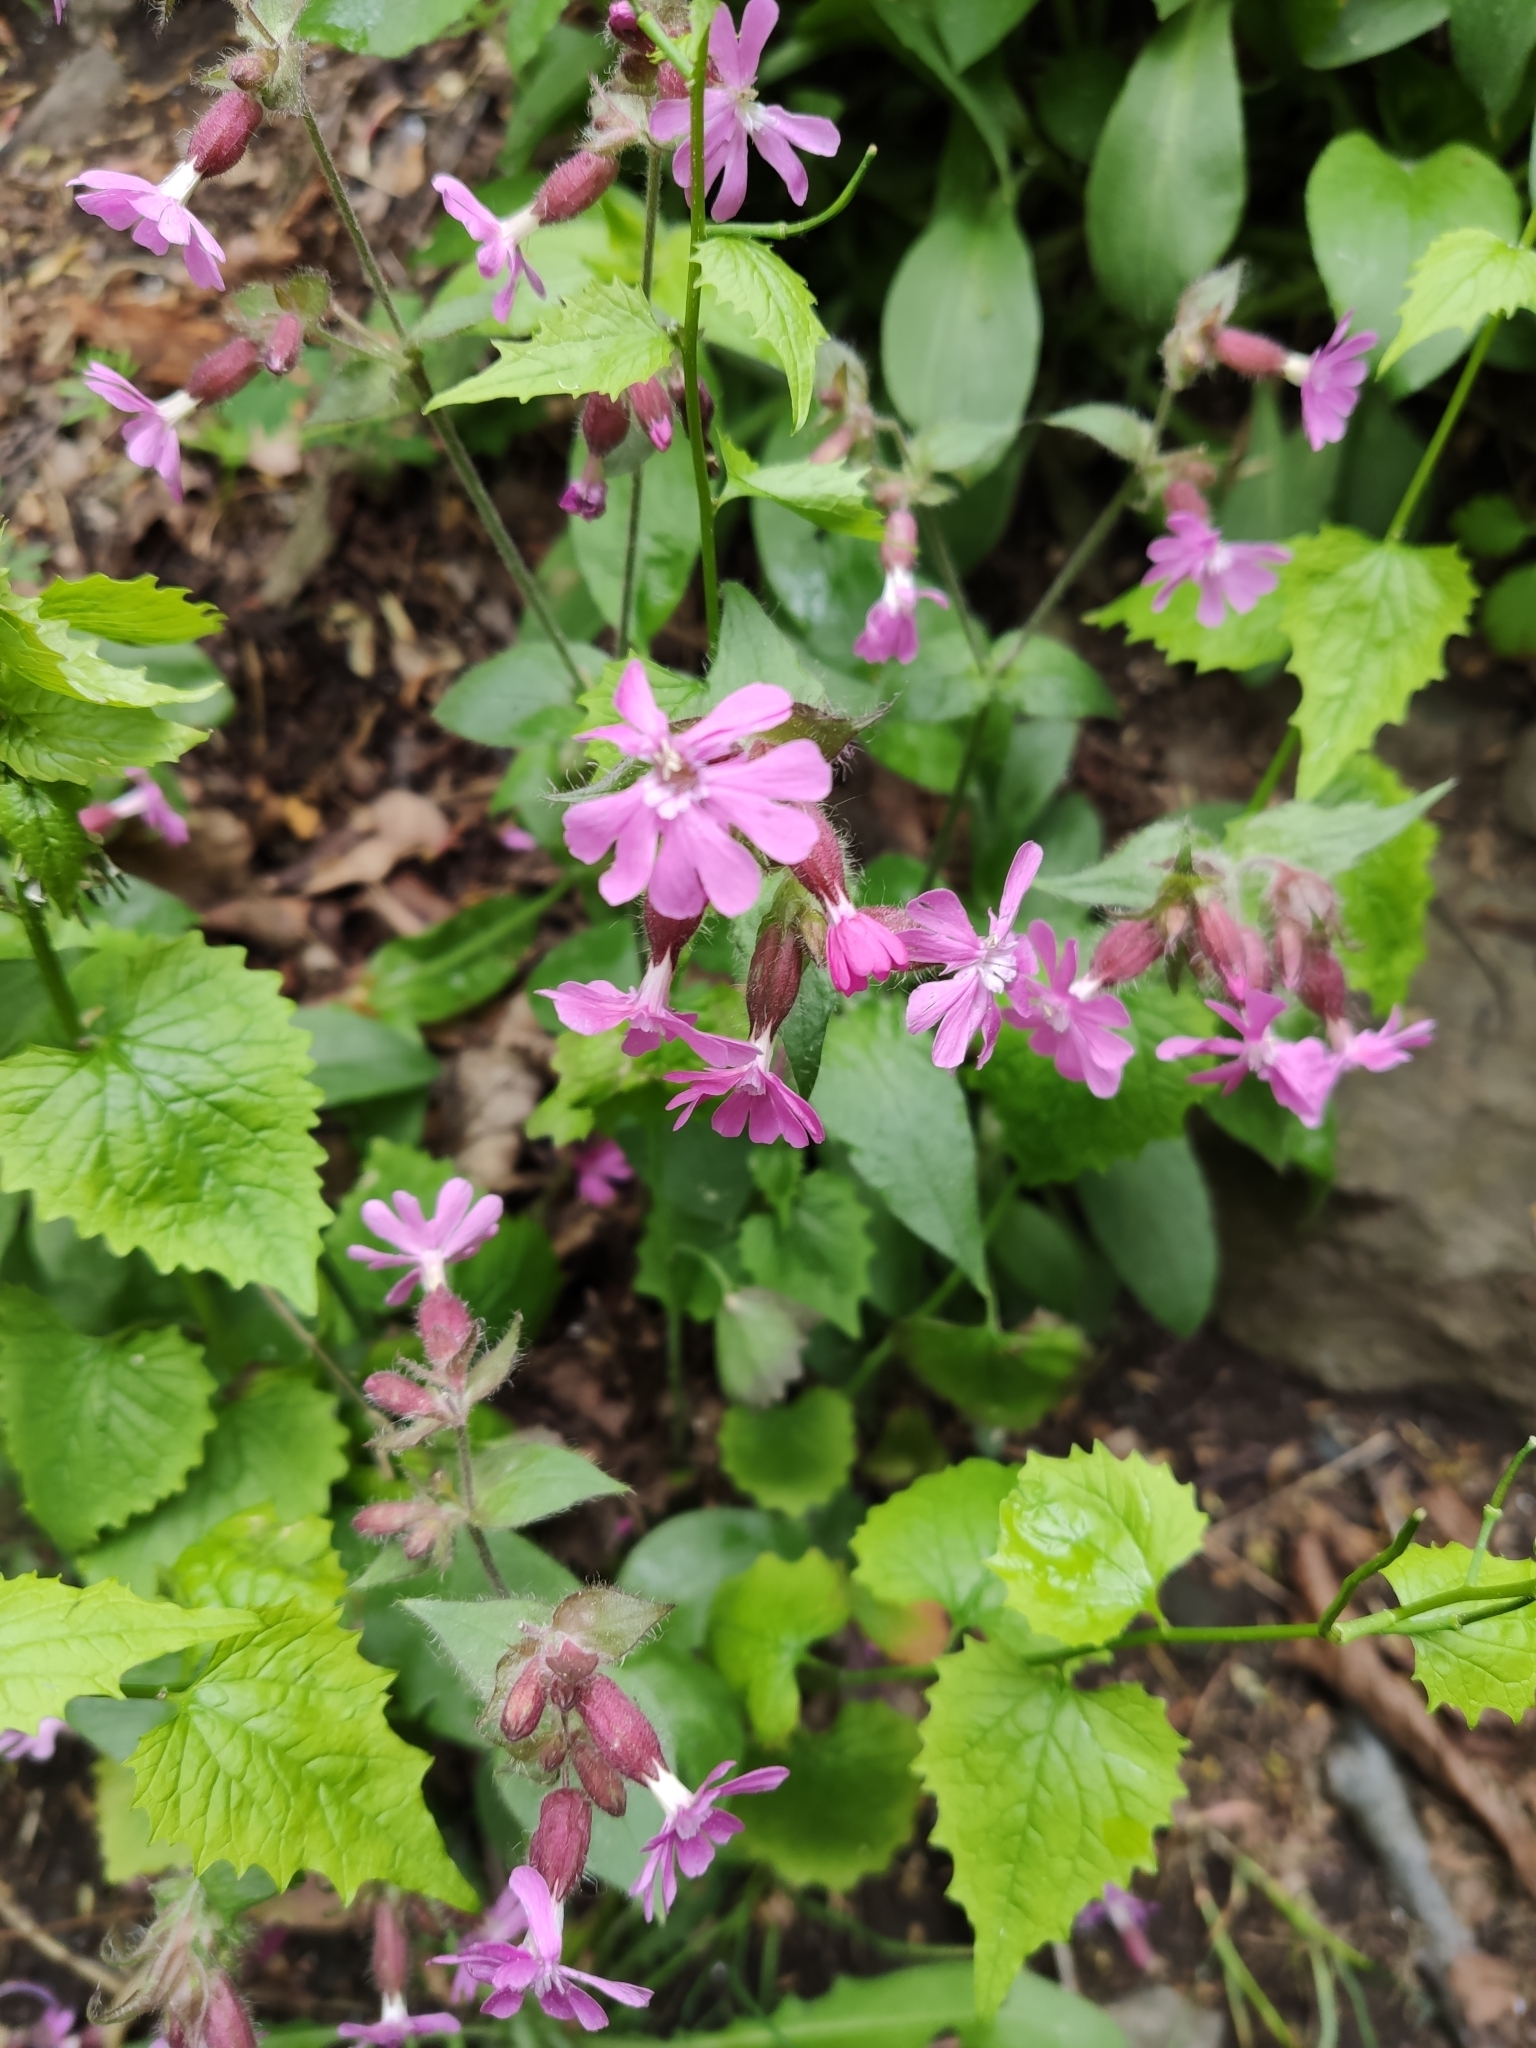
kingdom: Plantae
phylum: Tracheophyta
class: Magnoliopsida
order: Caryophyllales
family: Caryophyllaceae
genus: Silene
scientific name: Silene dioica
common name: Red campion
